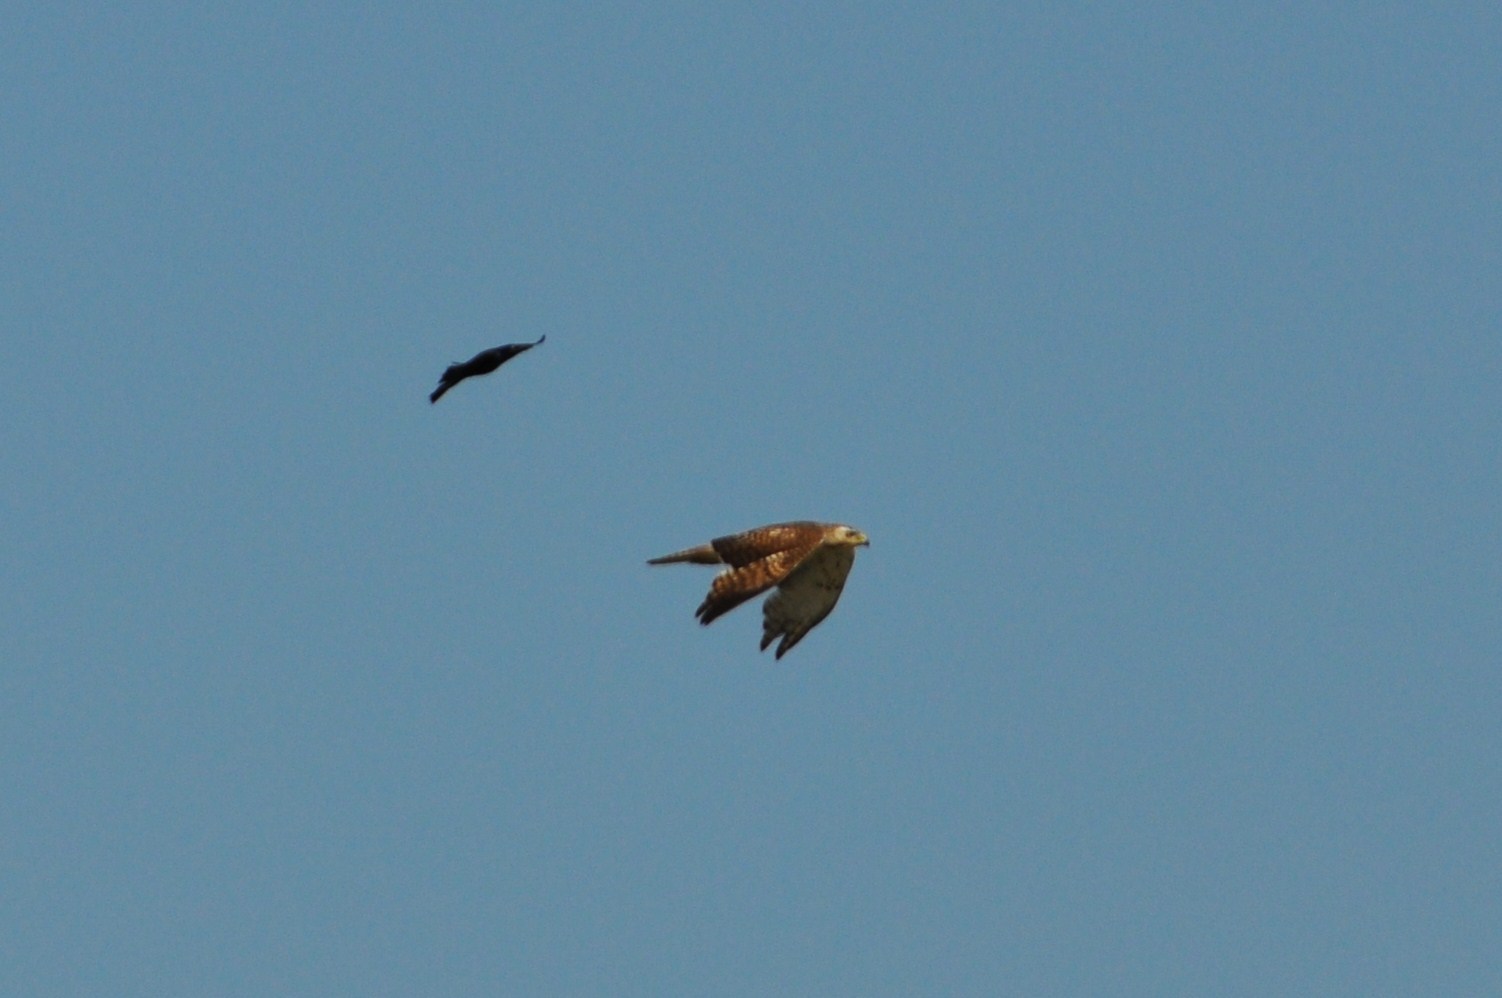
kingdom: Animalia
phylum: Chordata
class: Aves
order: Accipitriformes
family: Accipitridae
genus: Buteo
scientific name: Buteo jamaicensis
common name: Red-tailed hawk
